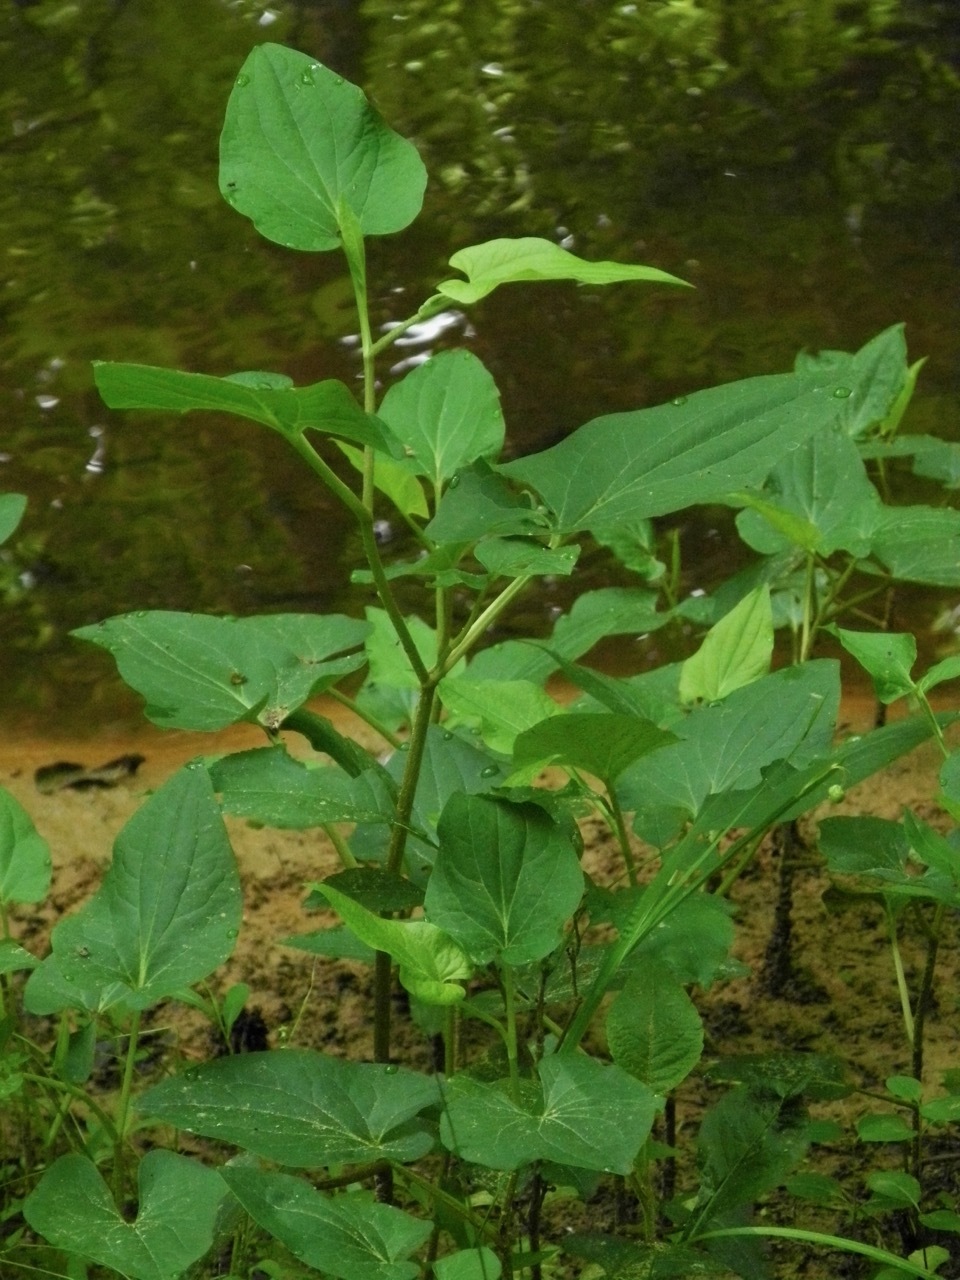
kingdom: Plantae
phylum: Tracheophyta
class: Magnoliopsida
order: Piperales
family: Saururaceae
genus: Saururus
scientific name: Saururus cernuus
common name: Lizard's-tail
